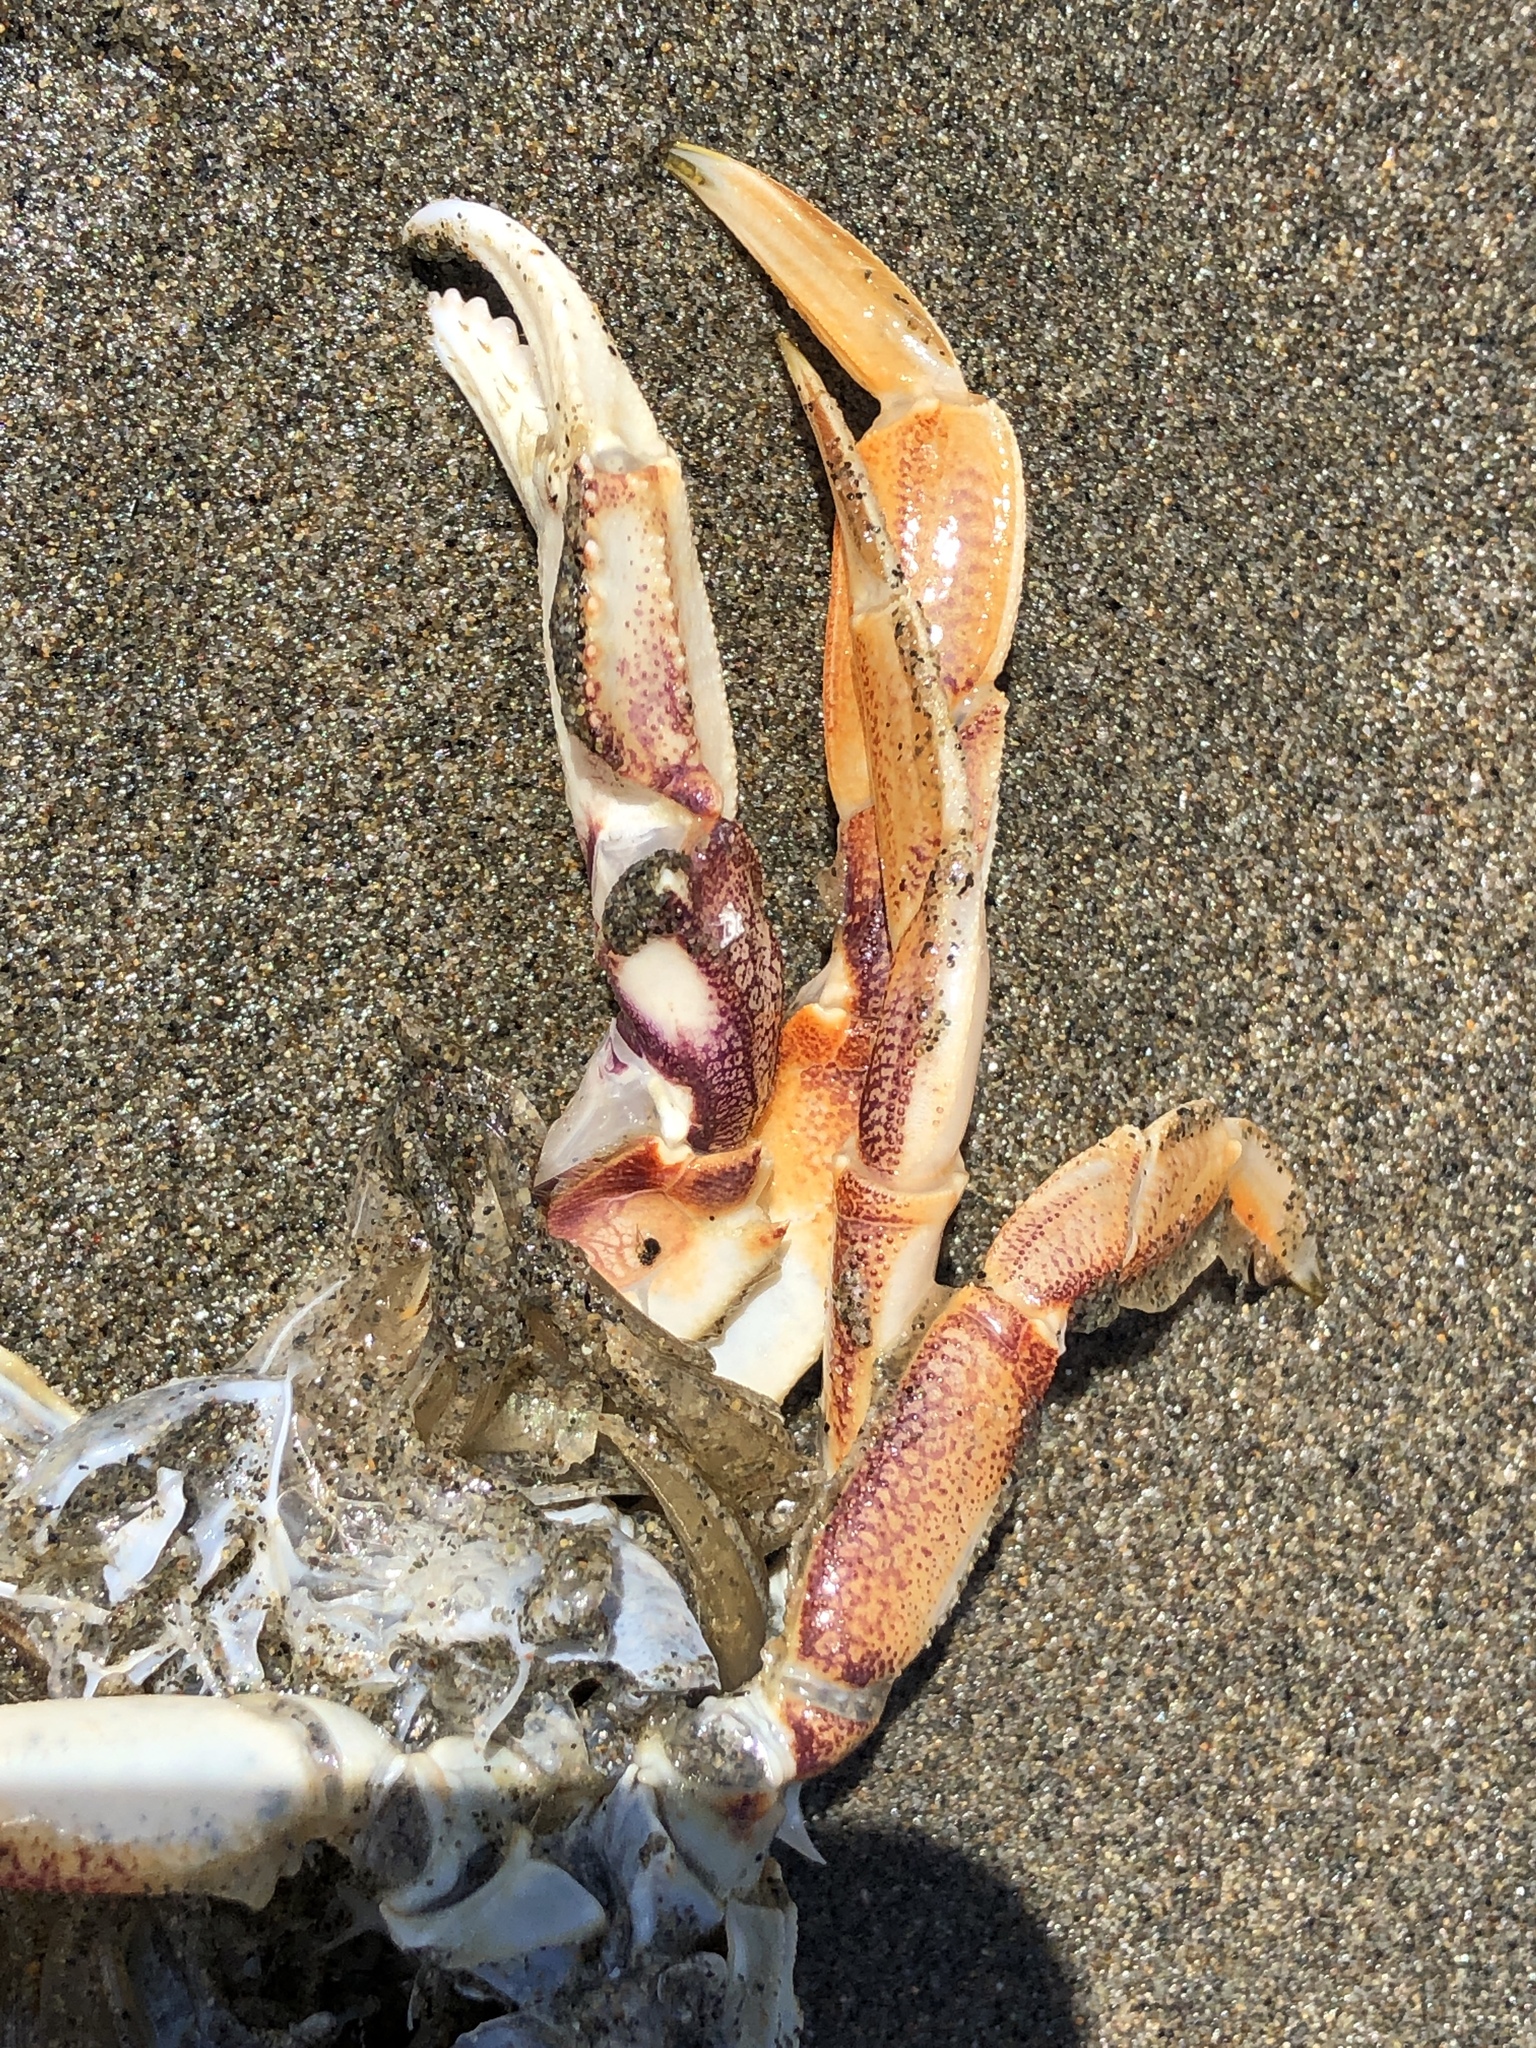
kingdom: Animalia
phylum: Arthropoda
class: Malacostraca
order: Decapoda
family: Cancridae
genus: Metacarcinus
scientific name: Metacarcinus magister
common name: Californian crab
